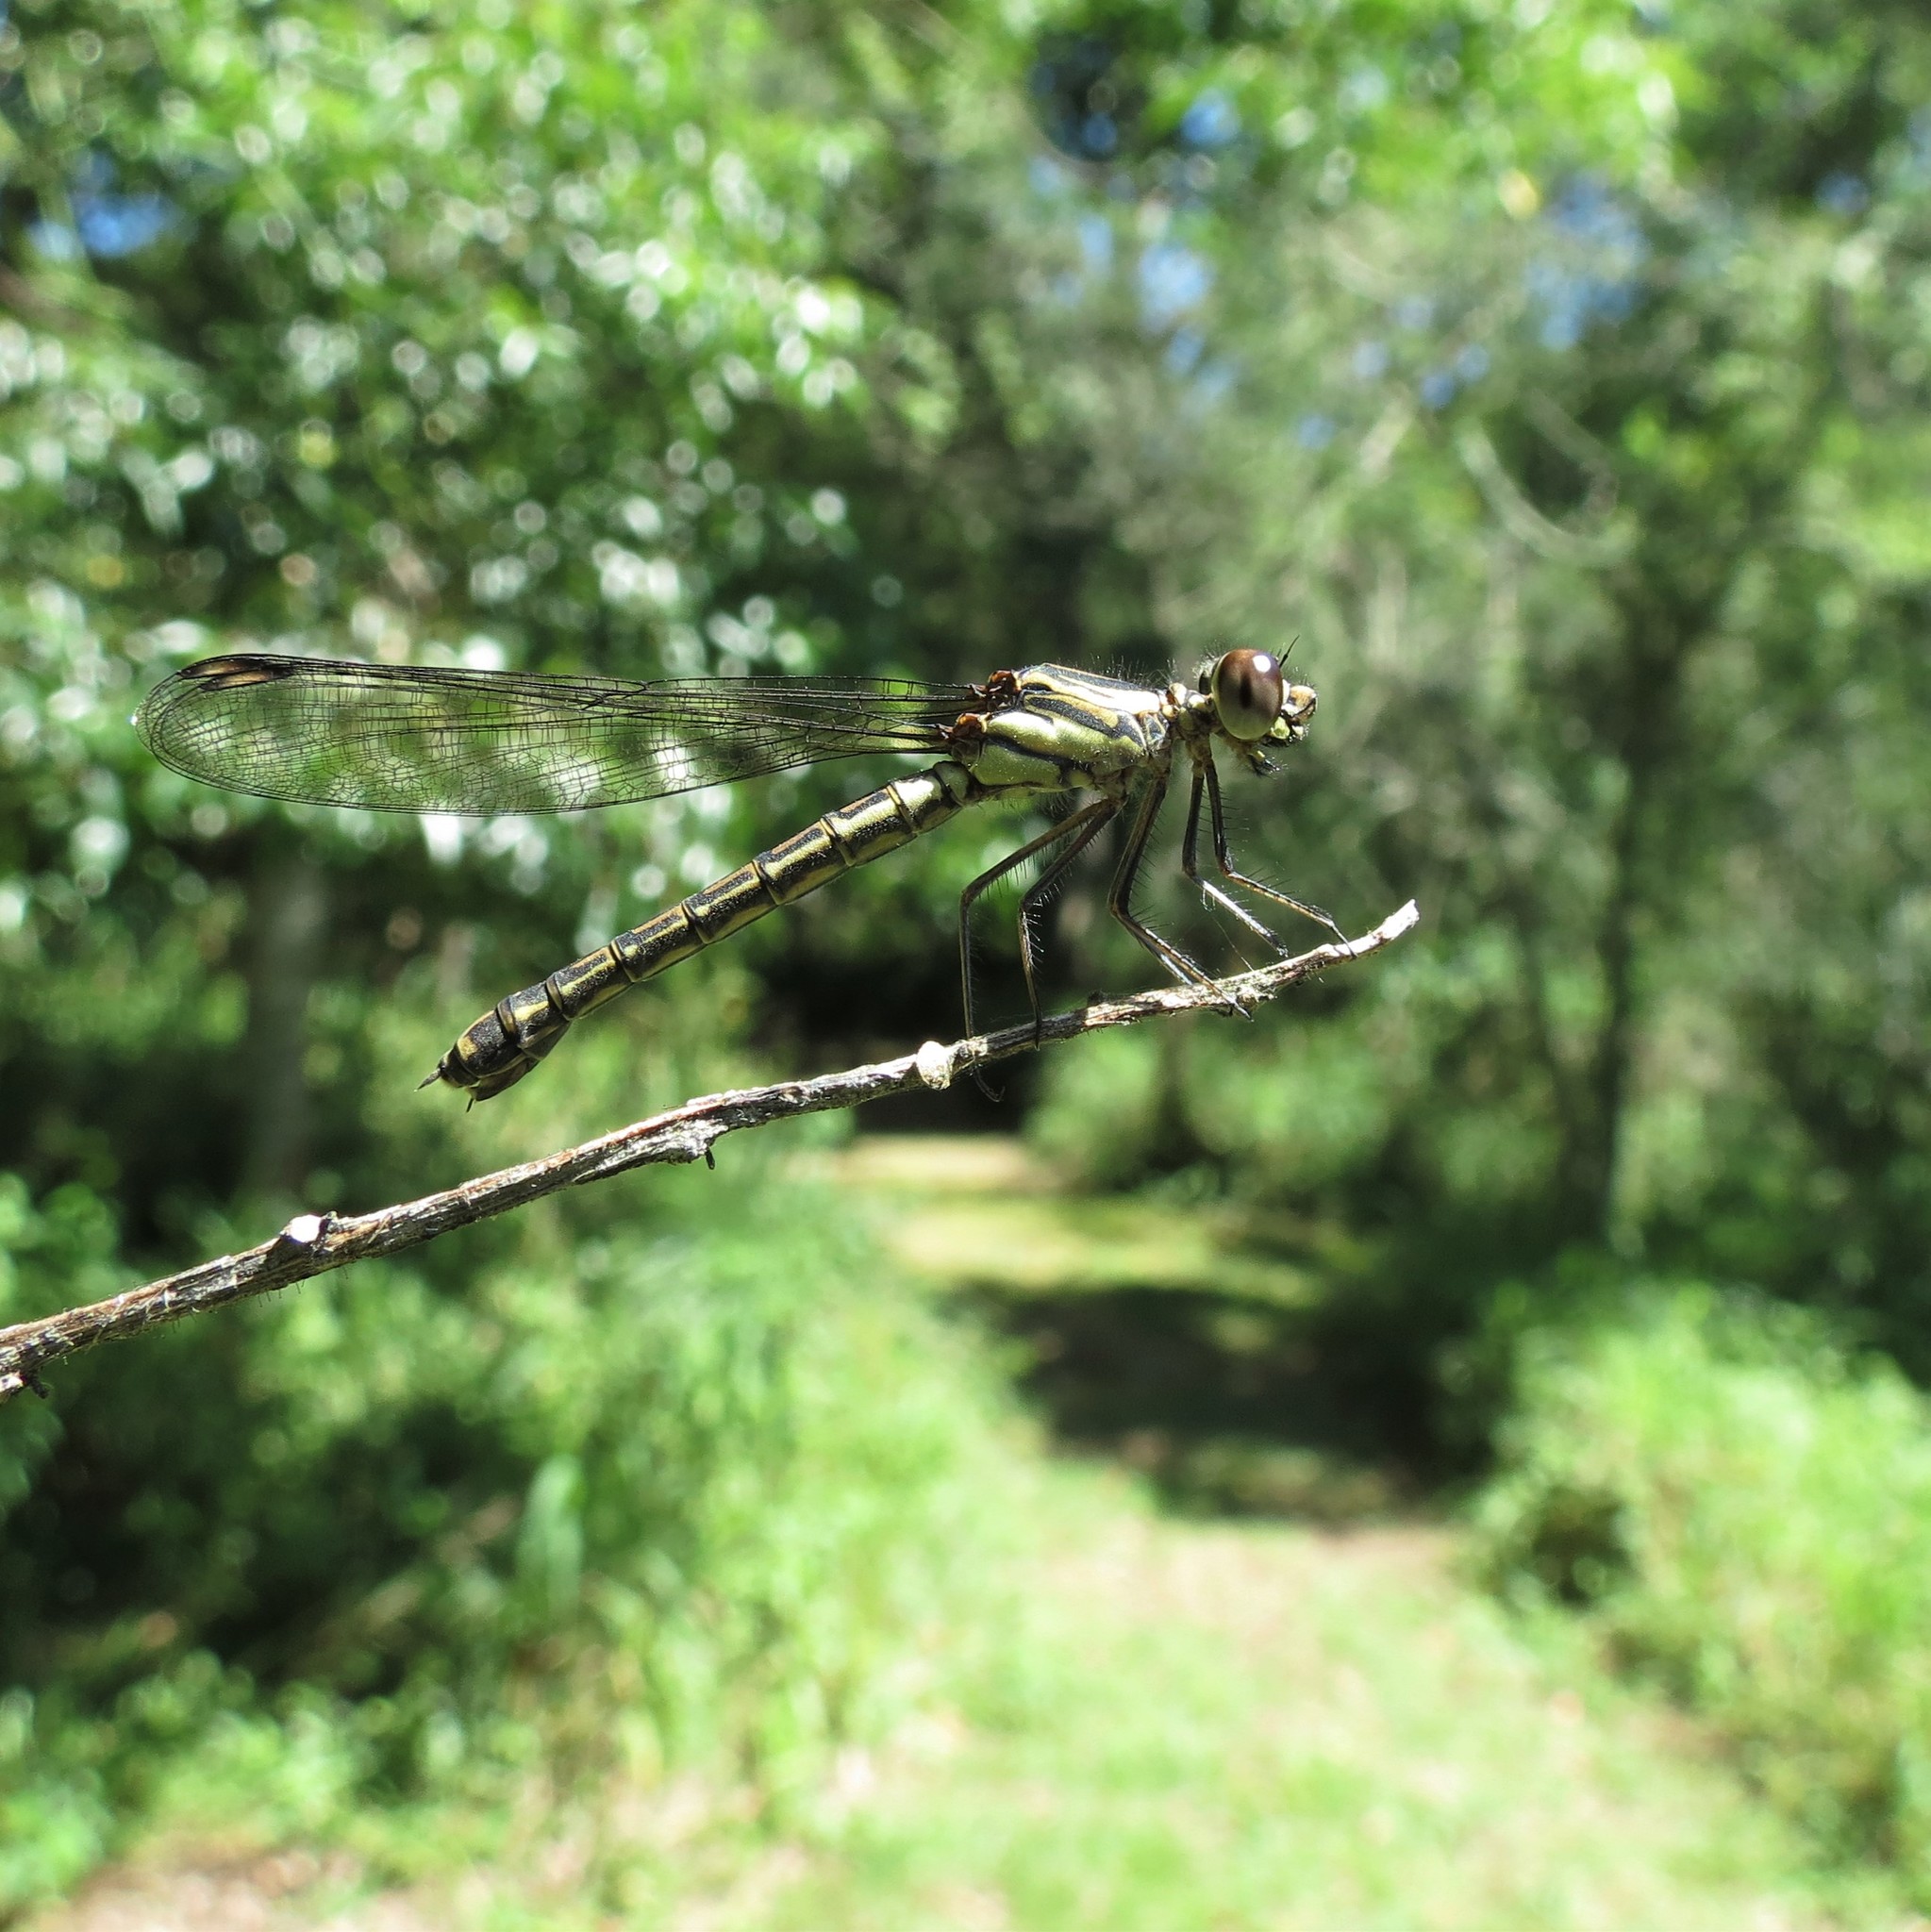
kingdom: Animalia
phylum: Arthropoda
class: Insecta
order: Odonata
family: Chlorocyphidae
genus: Platycypha
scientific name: Platycypha fitzsimonsi
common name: Boulder jewel
